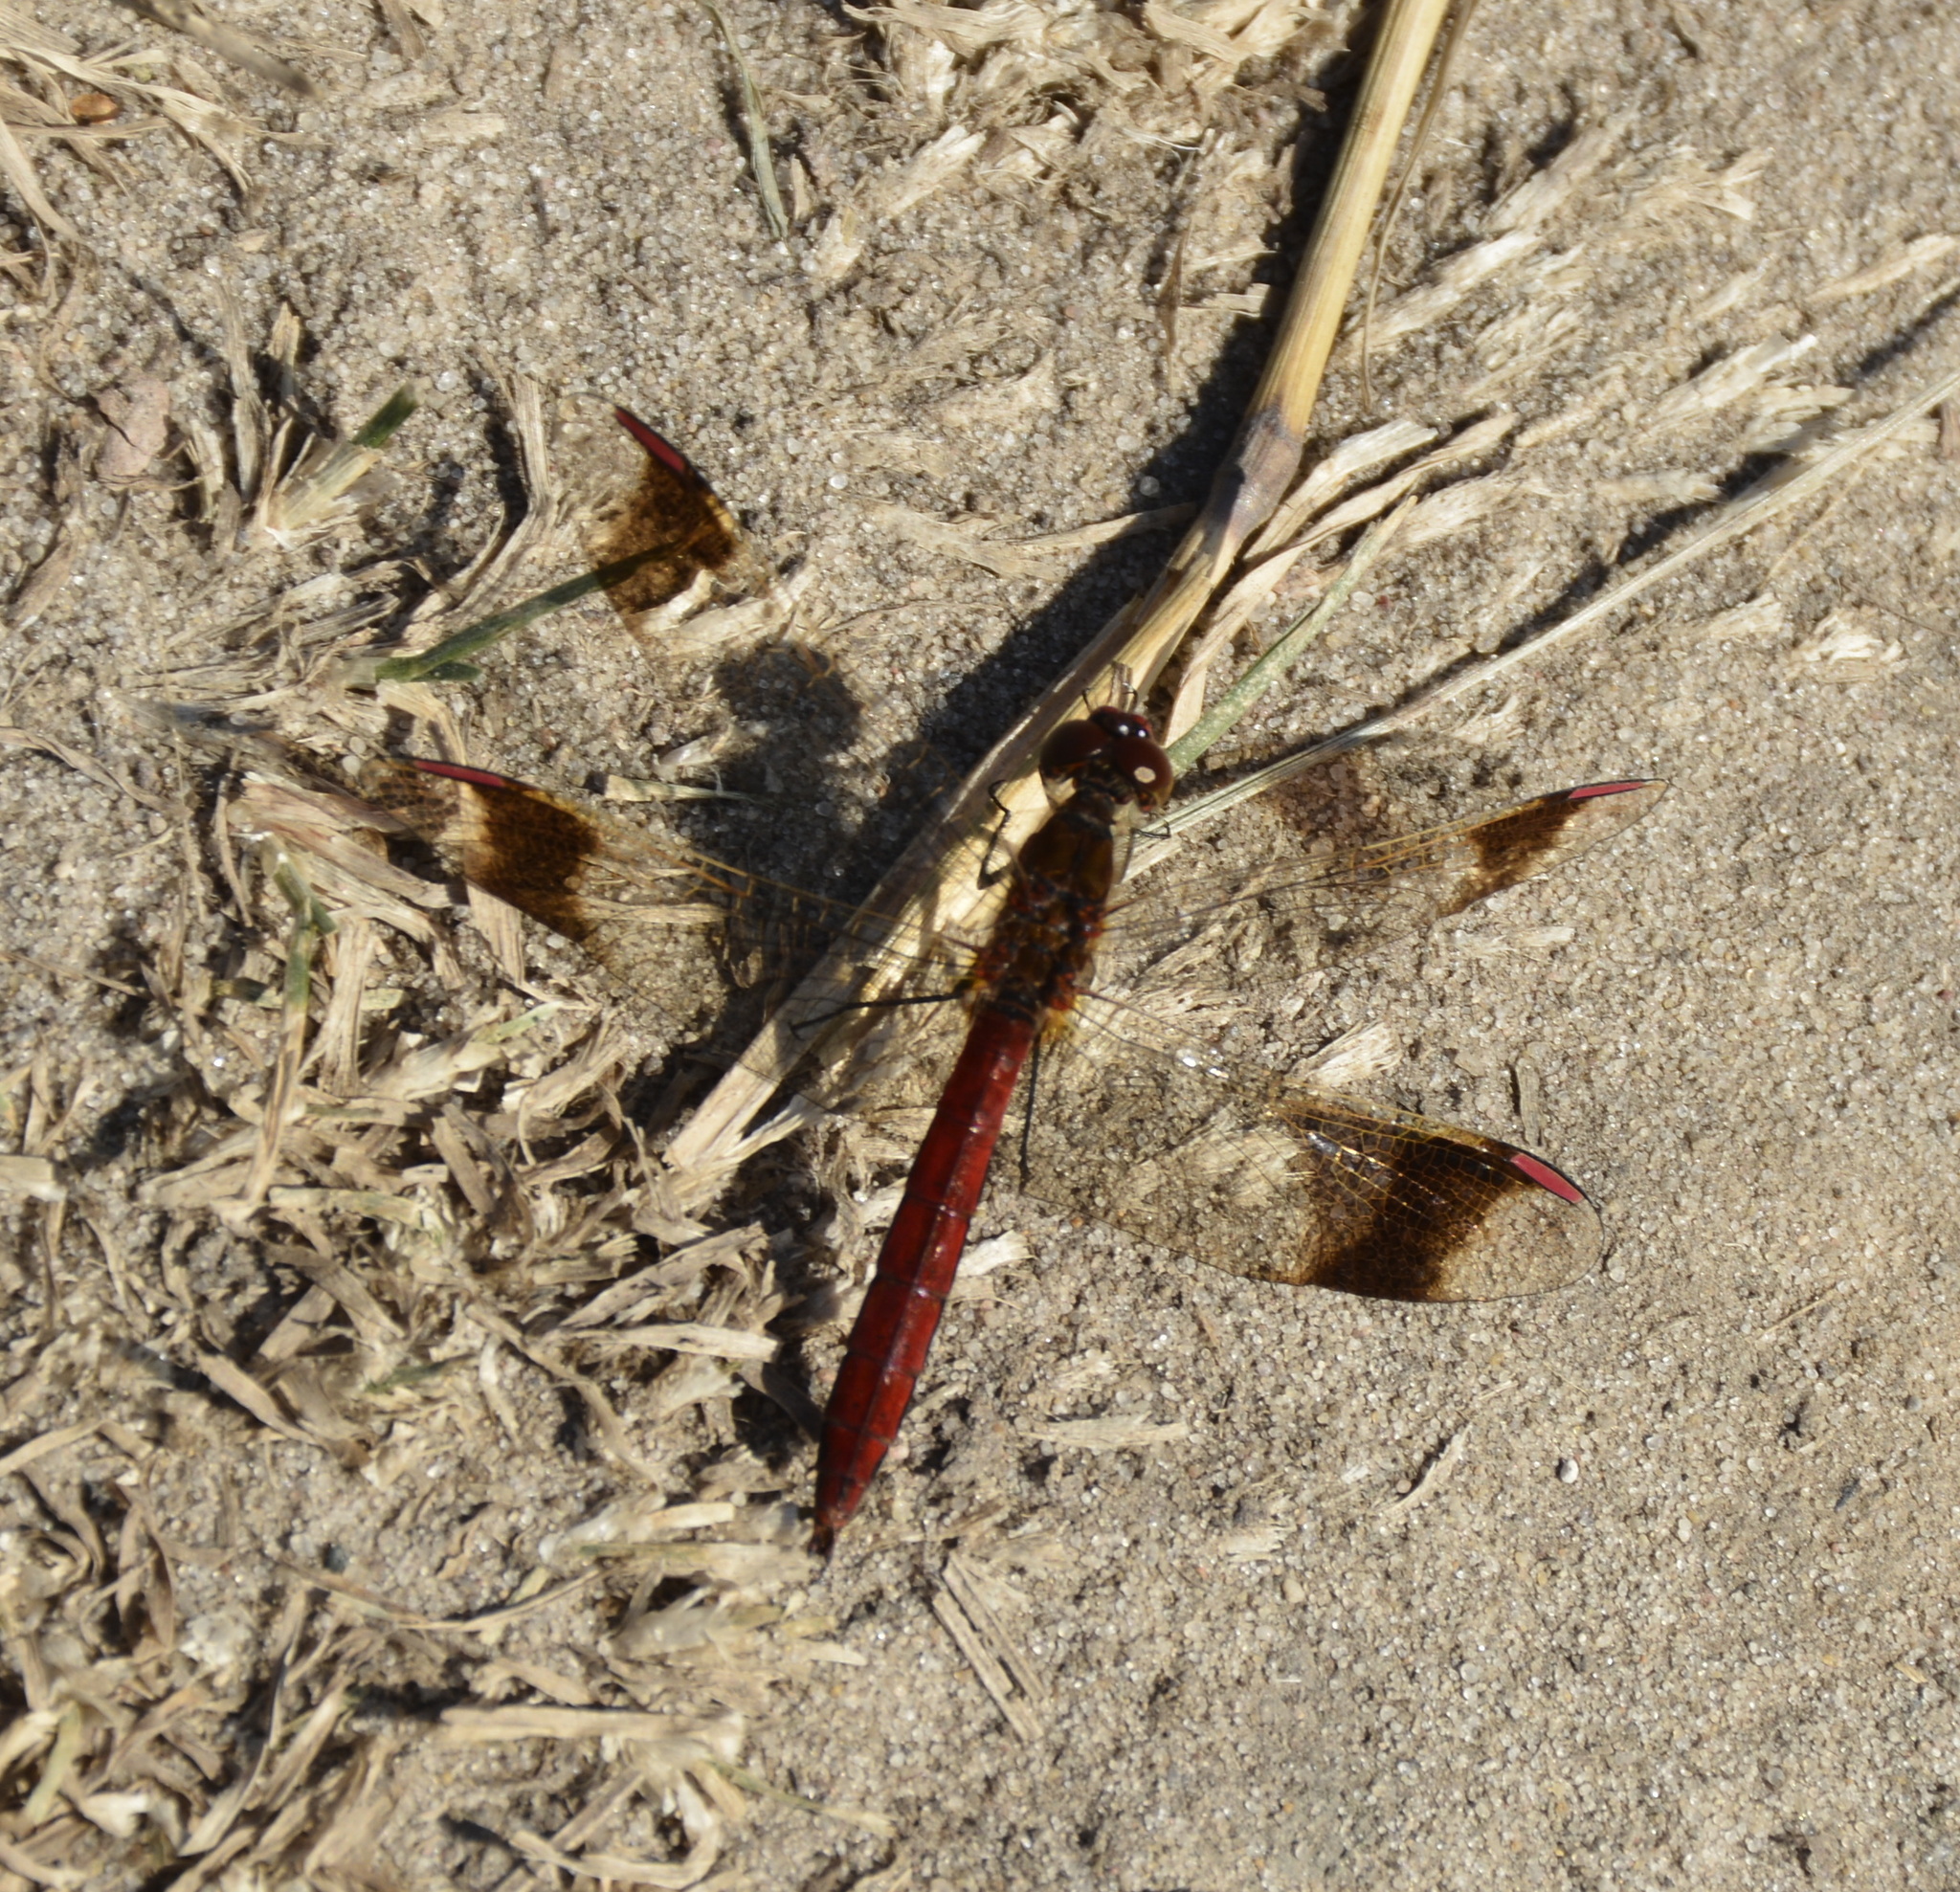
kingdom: Animalia
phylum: Arthropoda
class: Insecta
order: Odonata
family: Libellulidae
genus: Sympetrum
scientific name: Sympetrum pedemontanum
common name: Banded darter
